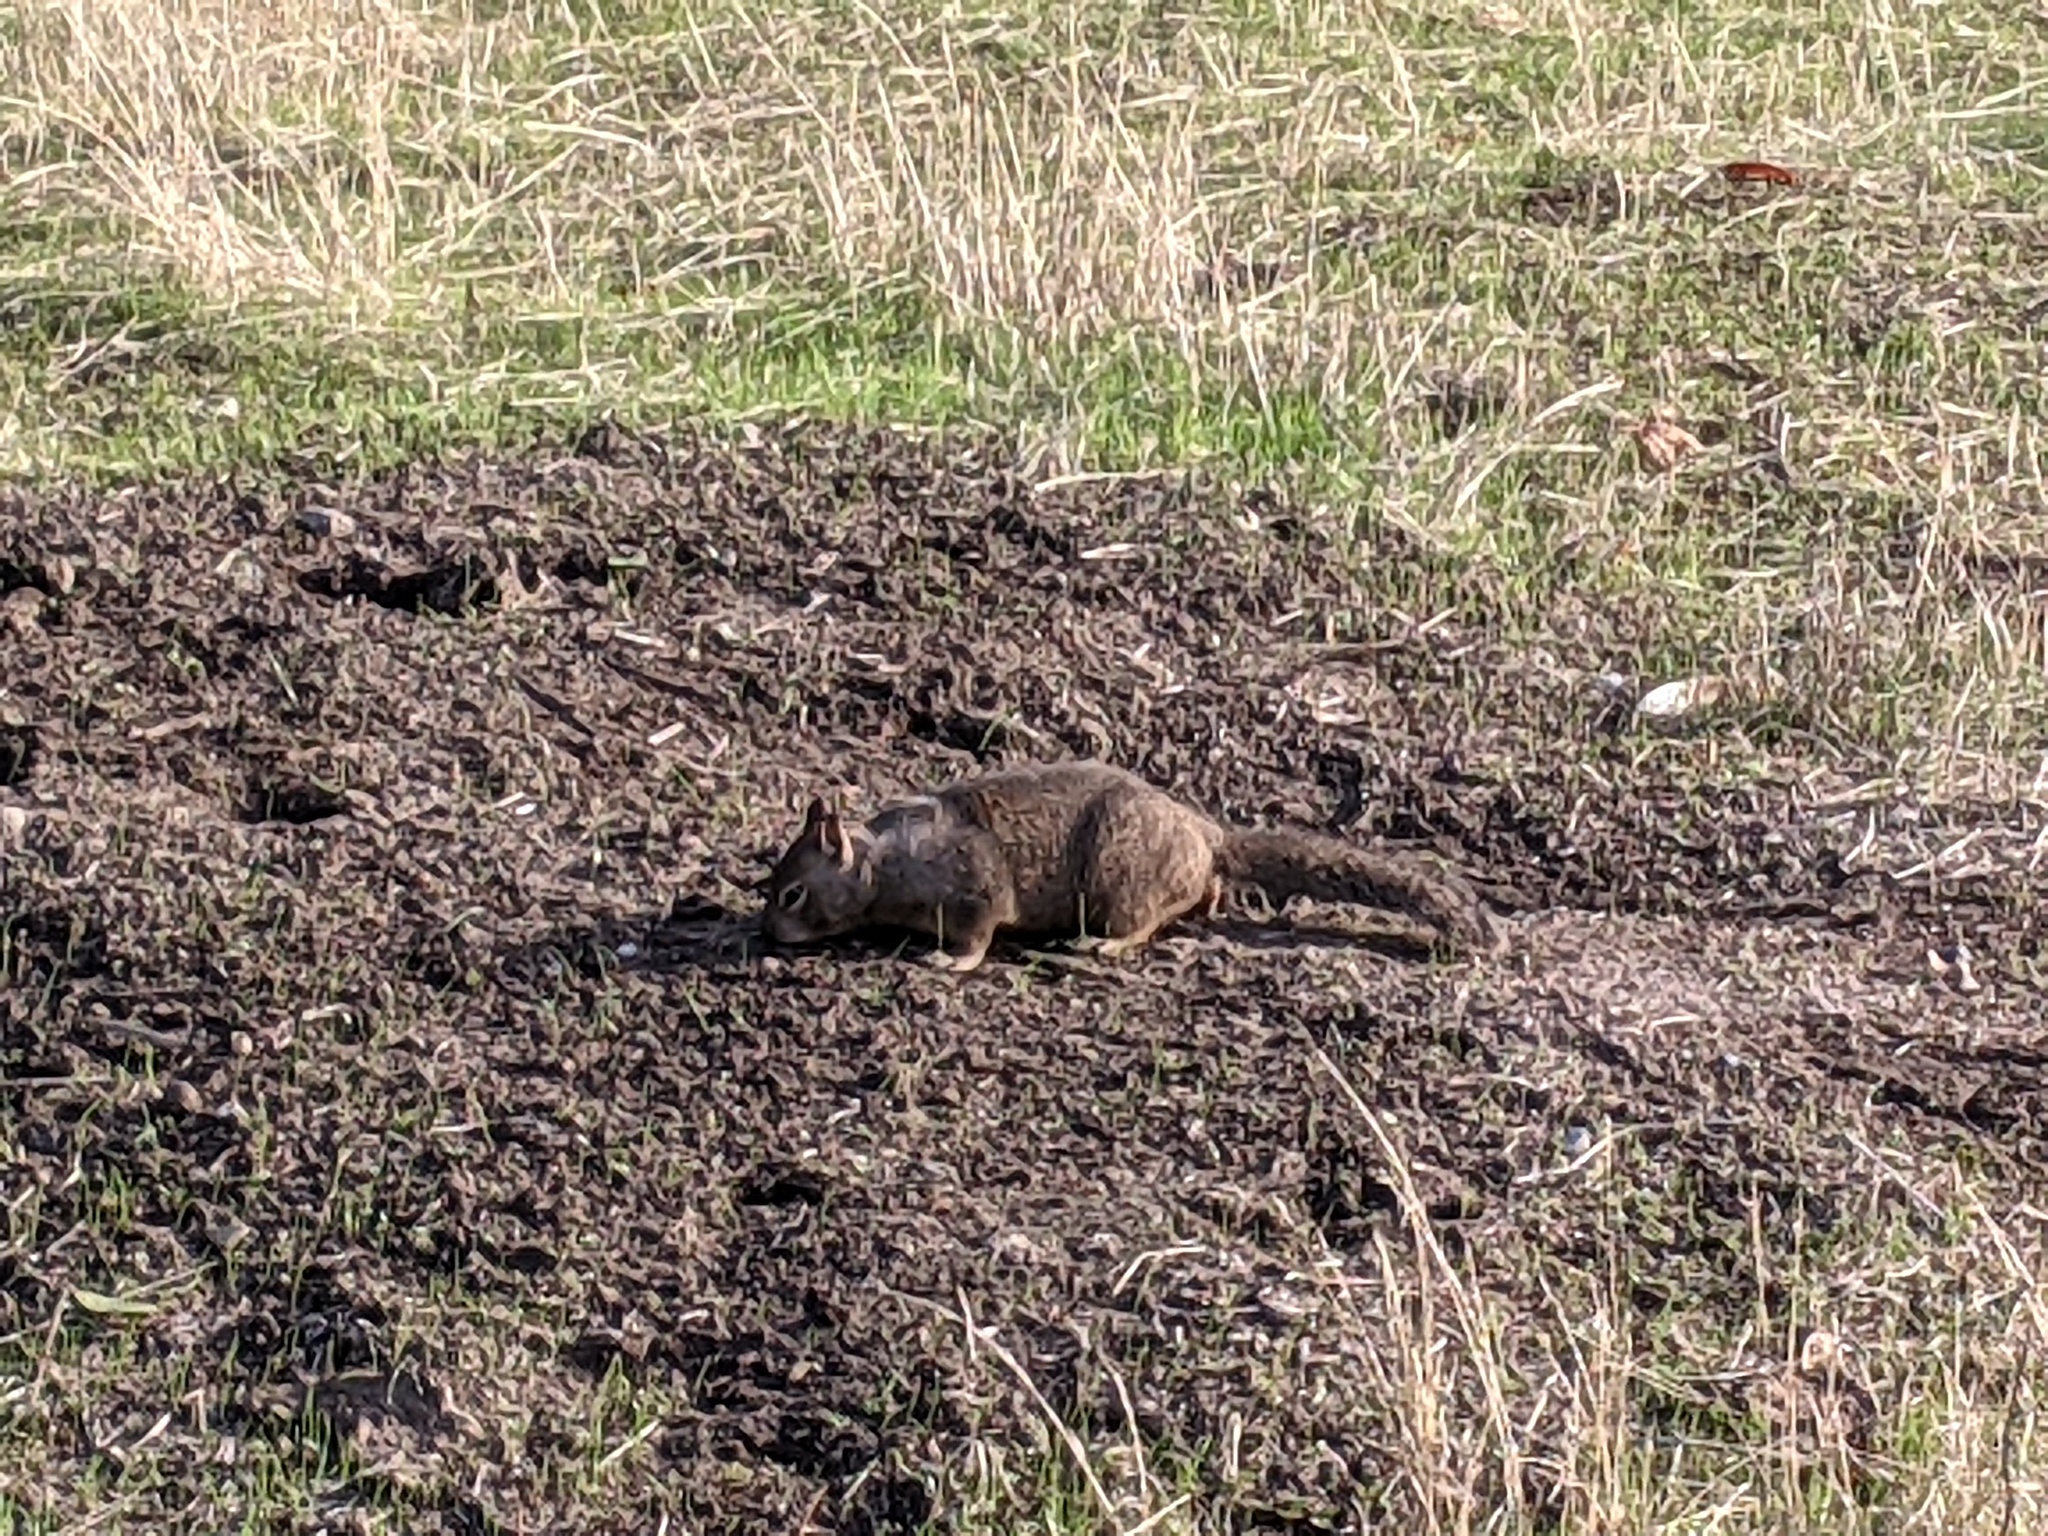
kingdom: Animalia
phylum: Chordata
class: Mammalia
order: Rodentia
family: Sciuridae
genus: Otospermophilus
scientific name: Otospermophilus beecheyi
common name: California ground squirrel
